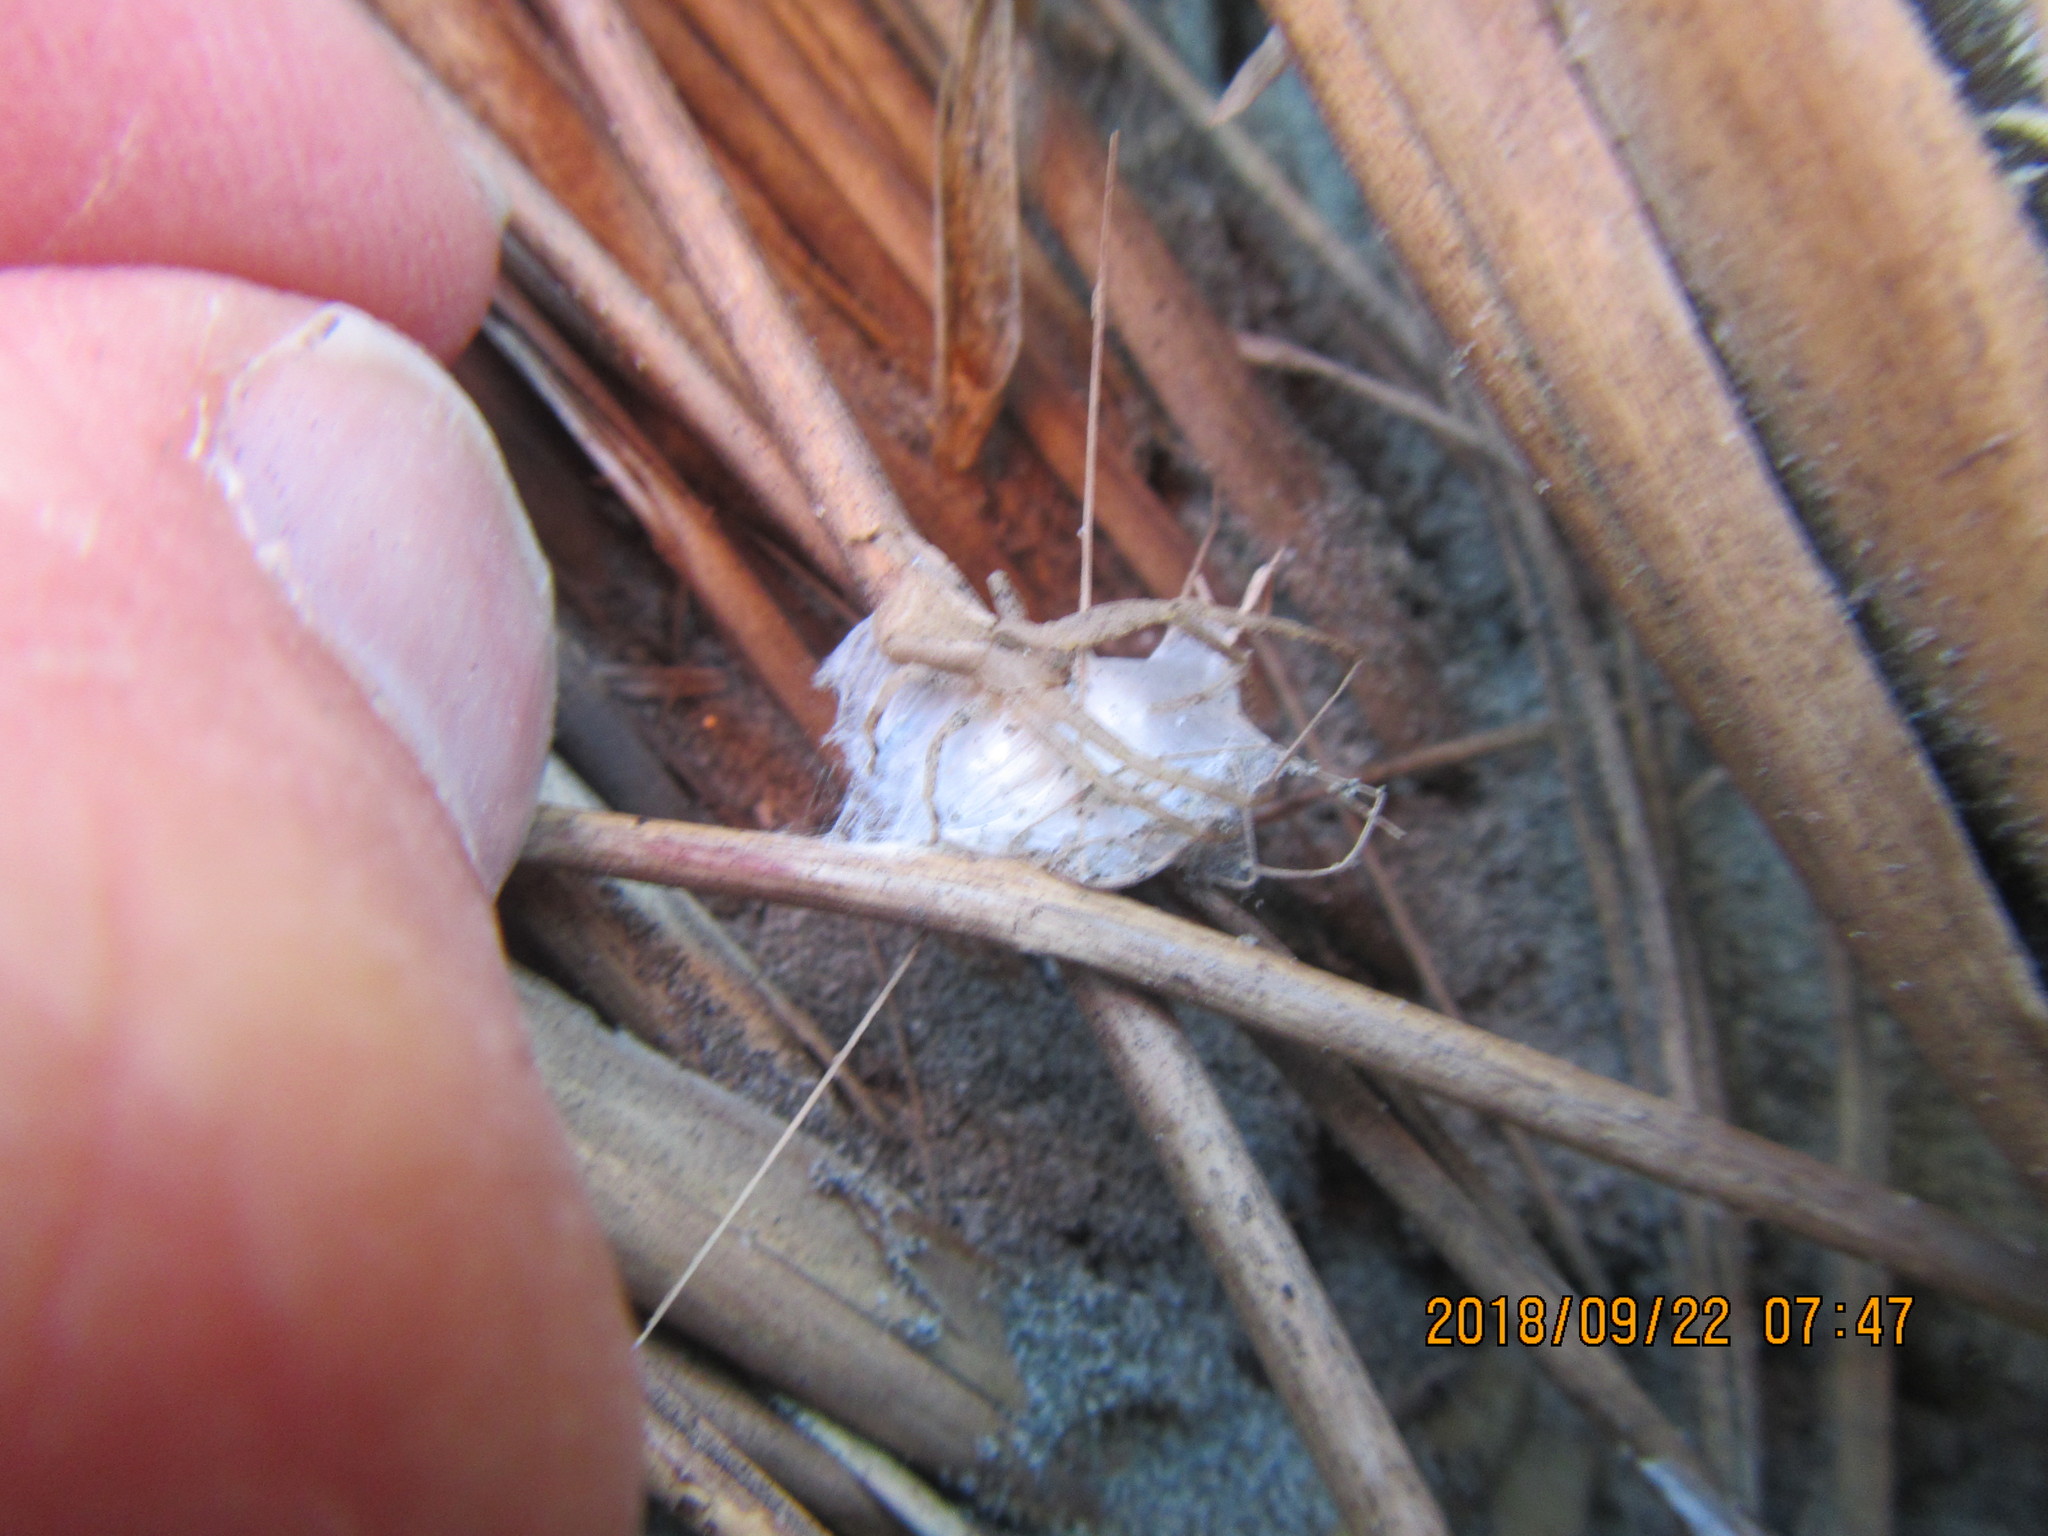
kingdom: Animalia
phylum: Arthropoda
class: Arachnida
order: Araneae
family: Thomisidae
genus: Sidymella
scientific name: Sidymella trapezia
